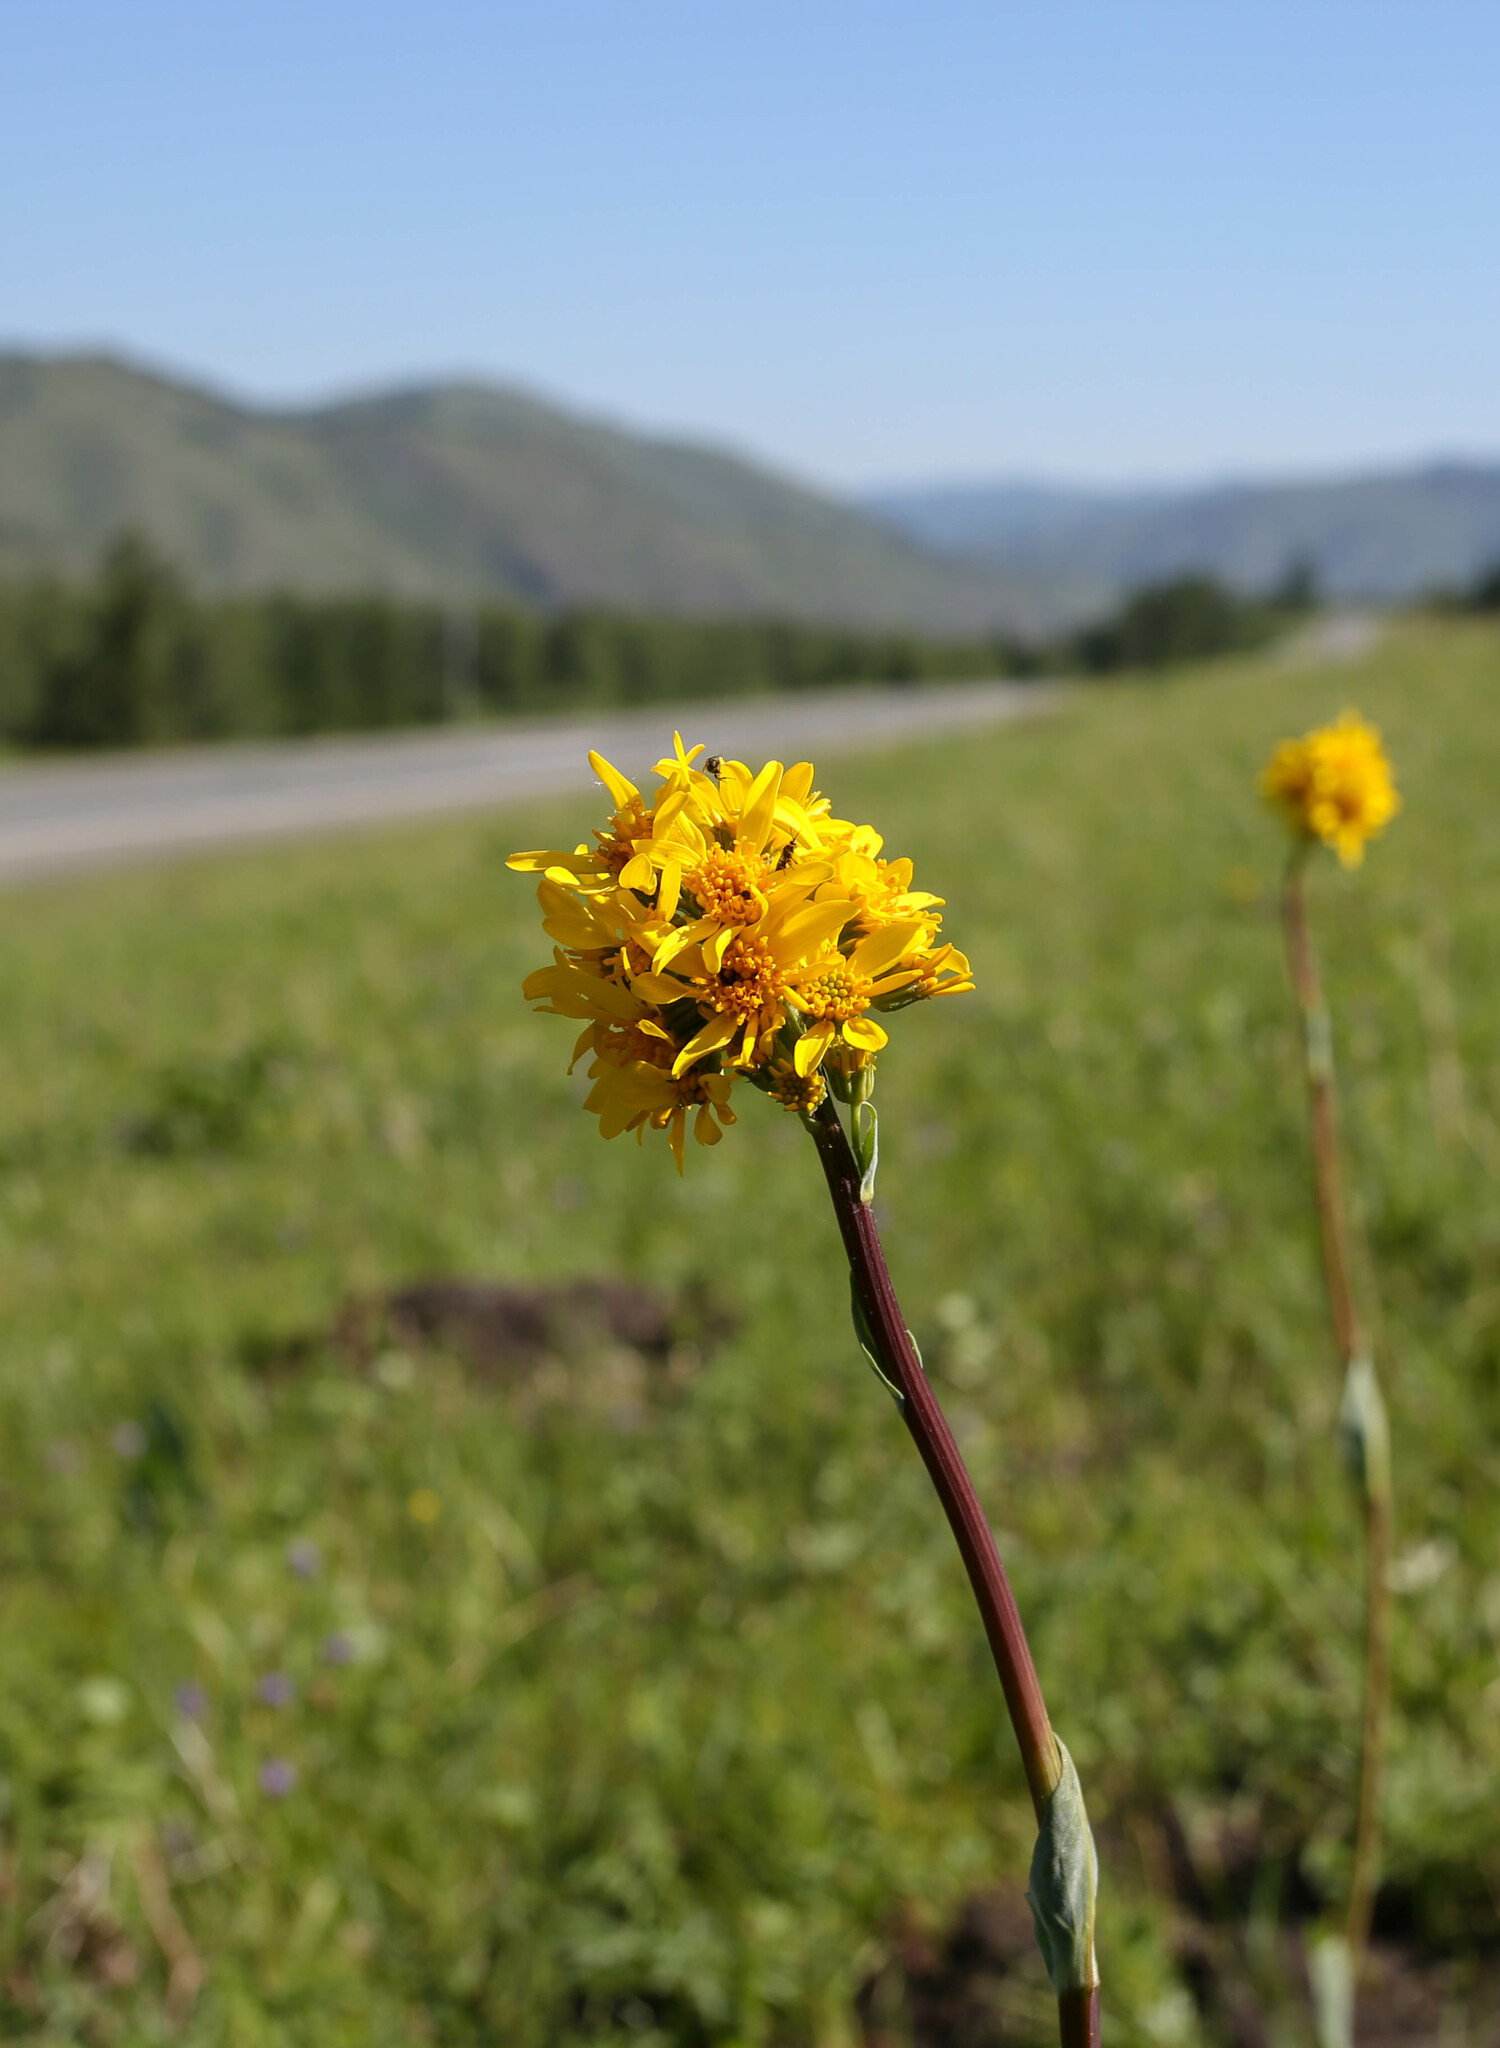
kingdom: Plantae
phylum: Tracheophyta
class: Magnoliopsida
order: Asterales
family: Asteraceae
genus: Ligularia
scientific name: Ligularia glauca
